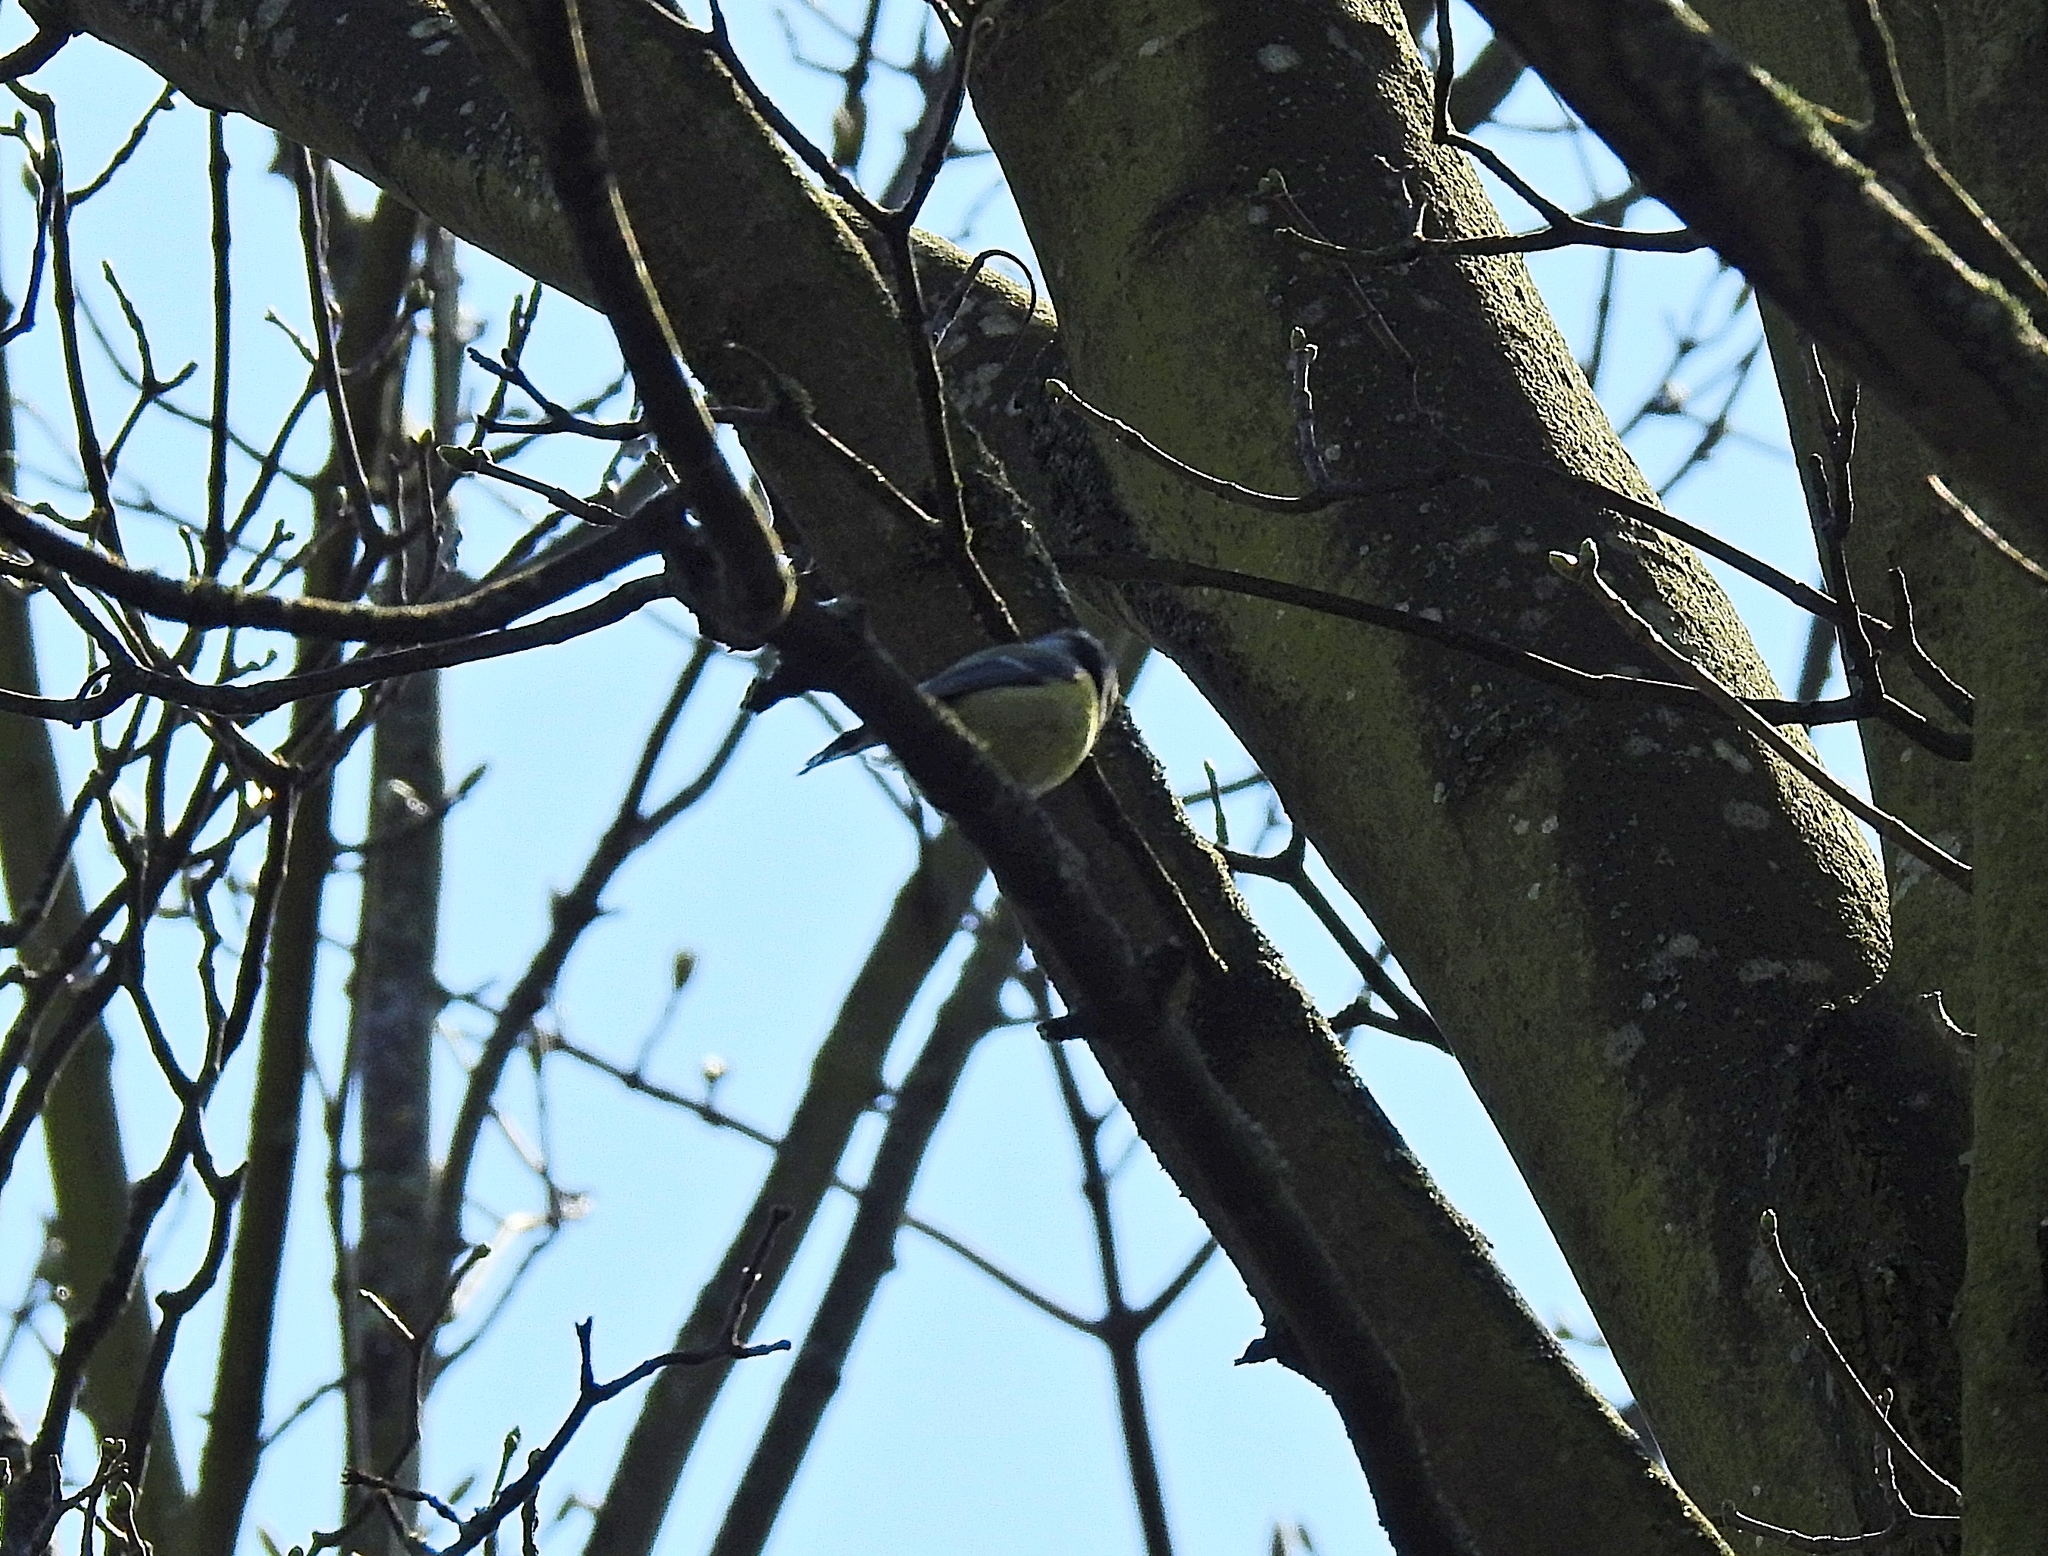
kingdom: Animalia
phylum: Chordata
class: Aves
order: Passeriformes
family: Paridae
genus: Cyanistes
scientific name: Cyanistes caeruleus
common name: Eurasian blue tit
